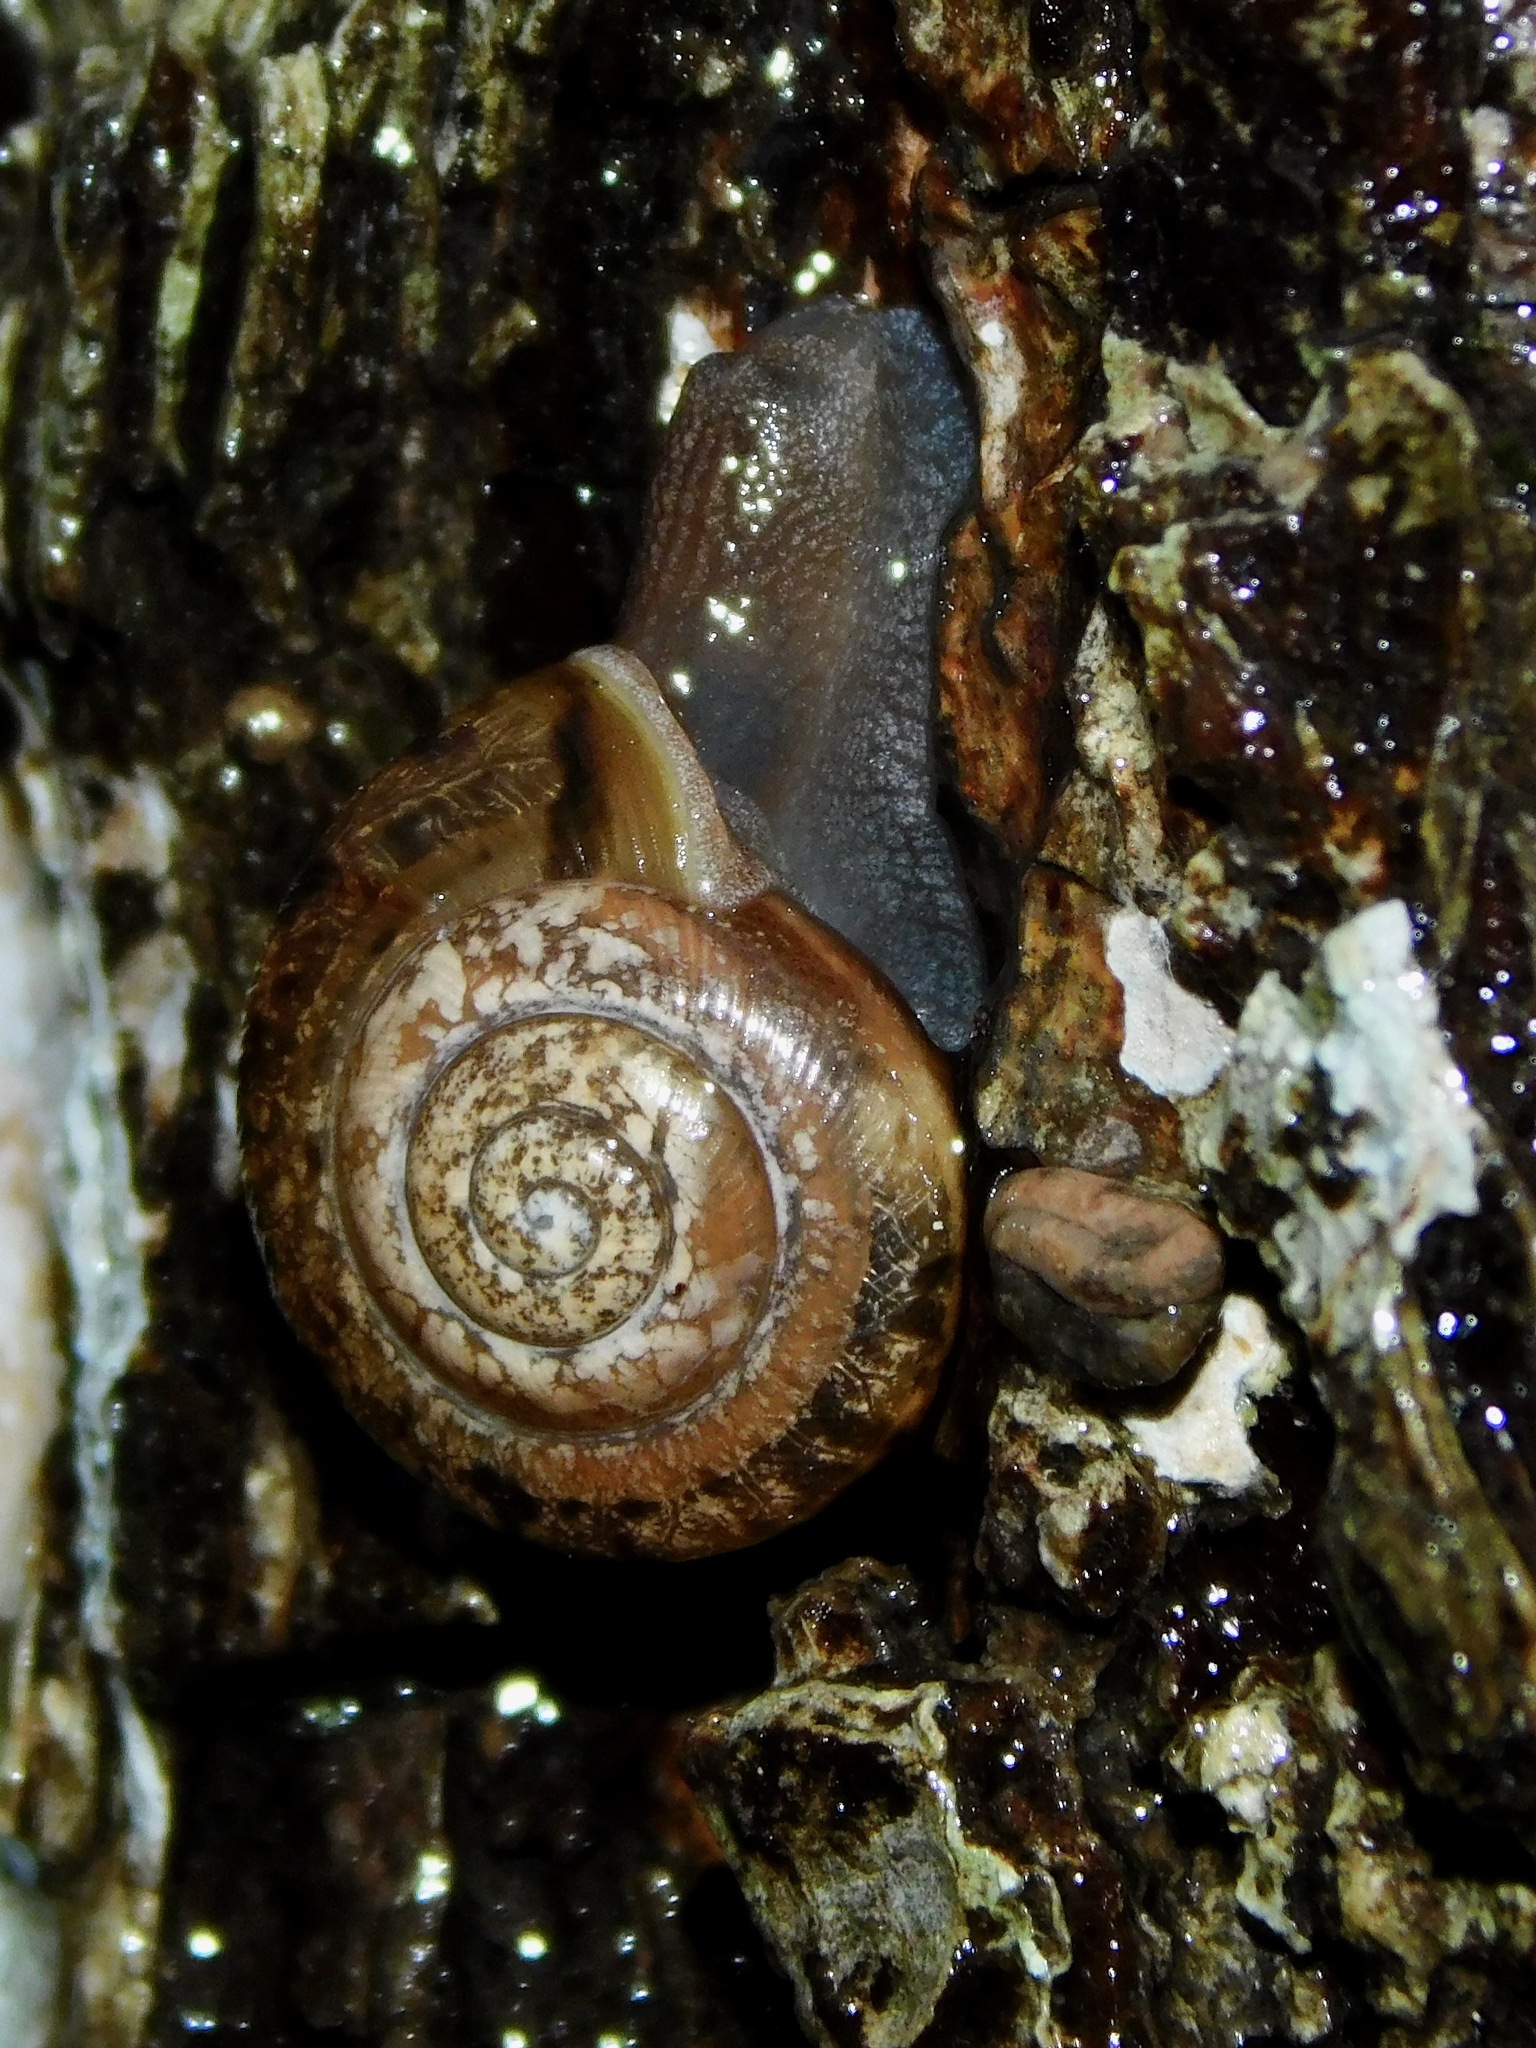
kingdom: Animalia
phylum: Mollusca
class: Gastropoda
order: Stylommatophora
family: Polygyridae
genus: Mesodon
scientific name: Mesodon thyroidus
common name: White-lip globe
